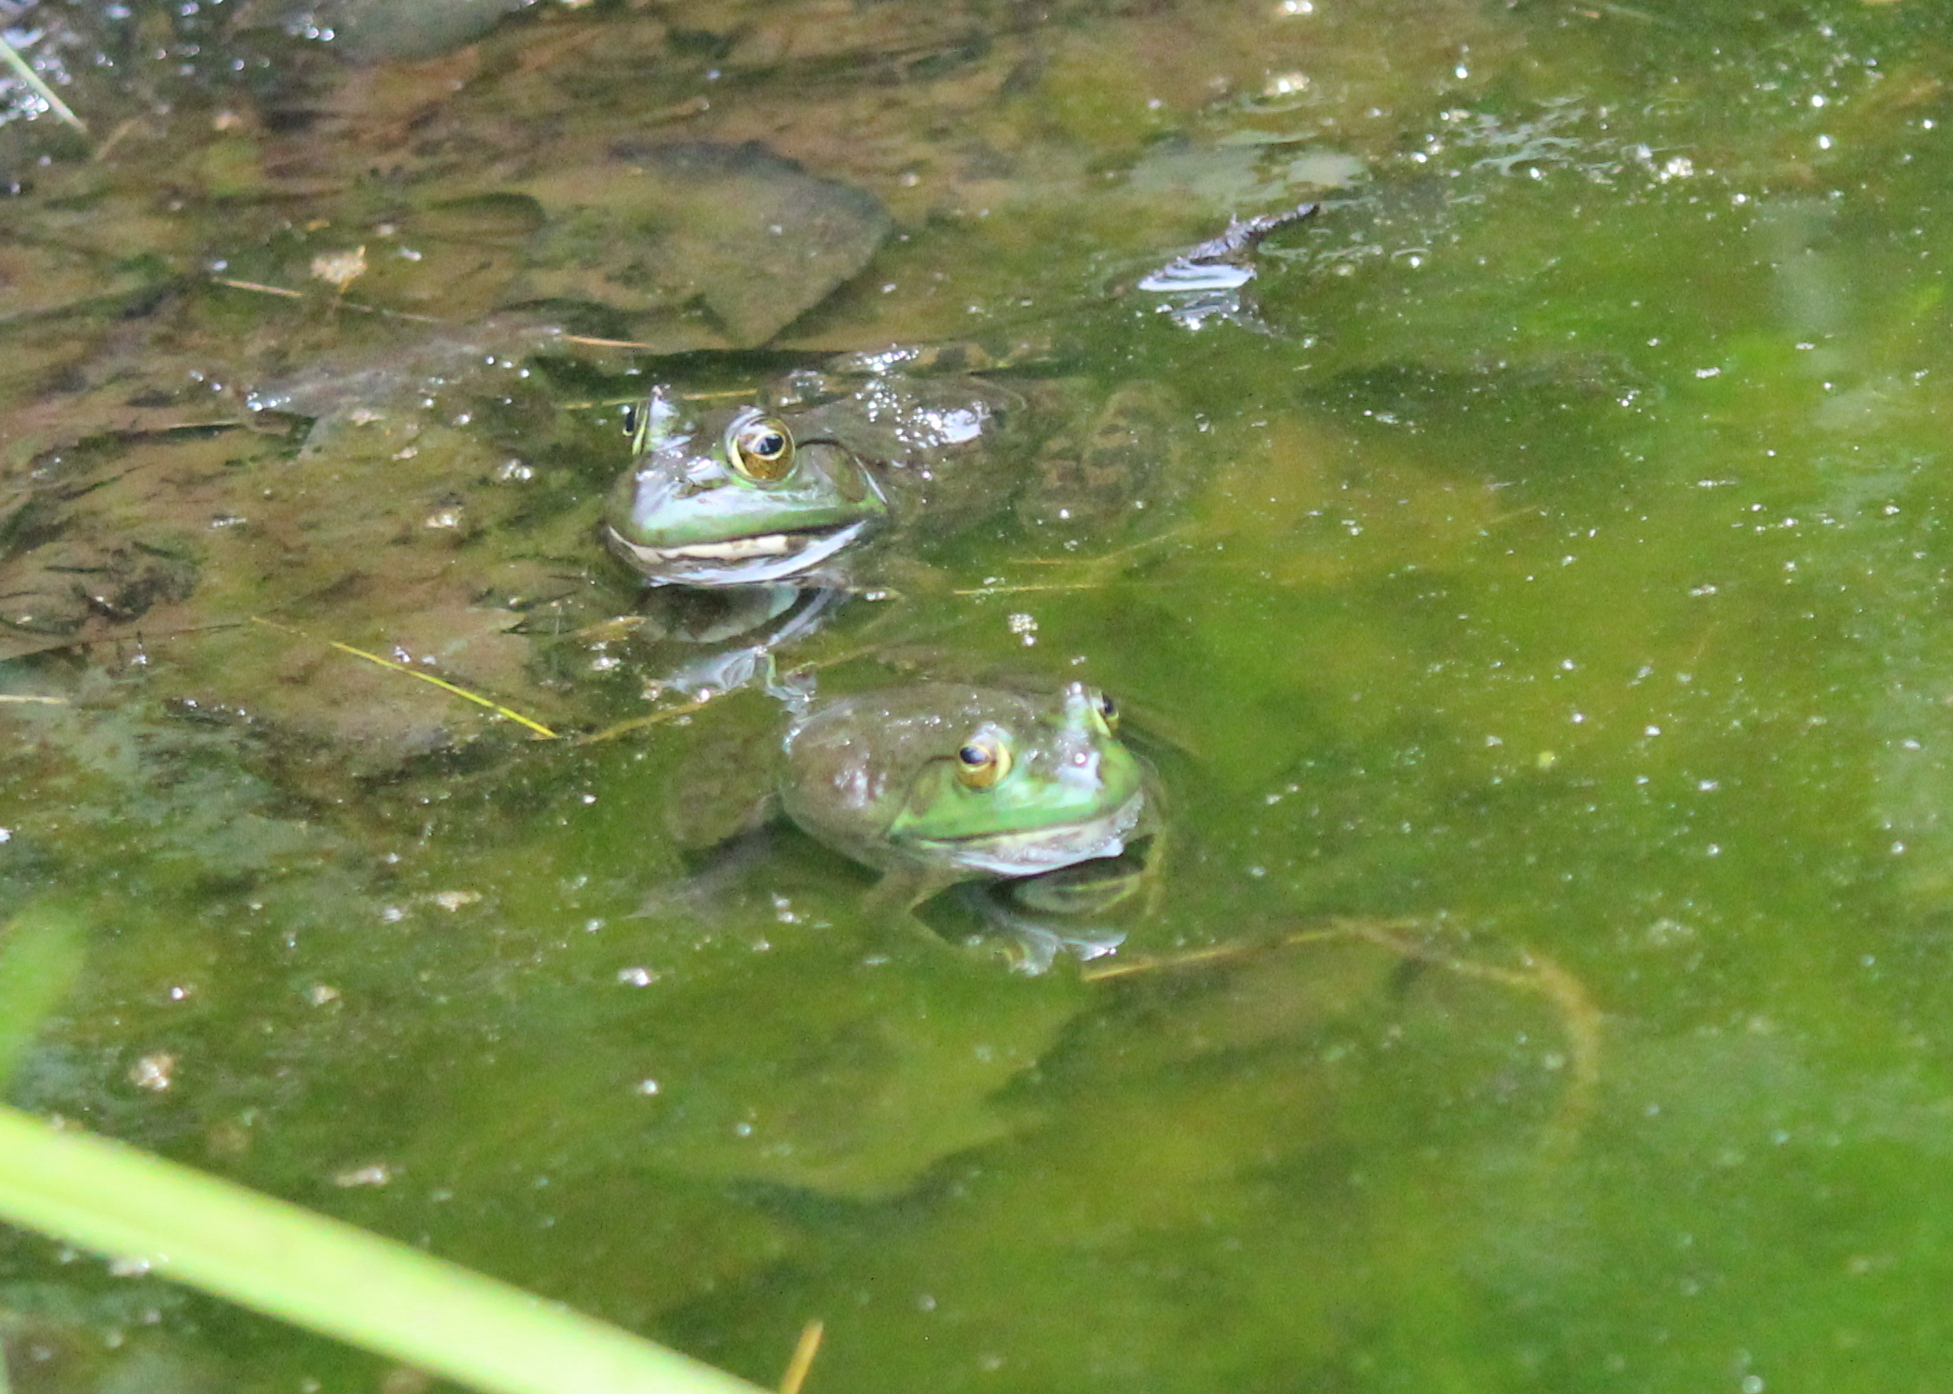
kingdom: Animalia
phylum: Chordata
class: Amphibia
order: Anura
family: Ranidae
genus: Lithobates
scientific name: Lithobates catesbeianus
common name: American bullfrog
